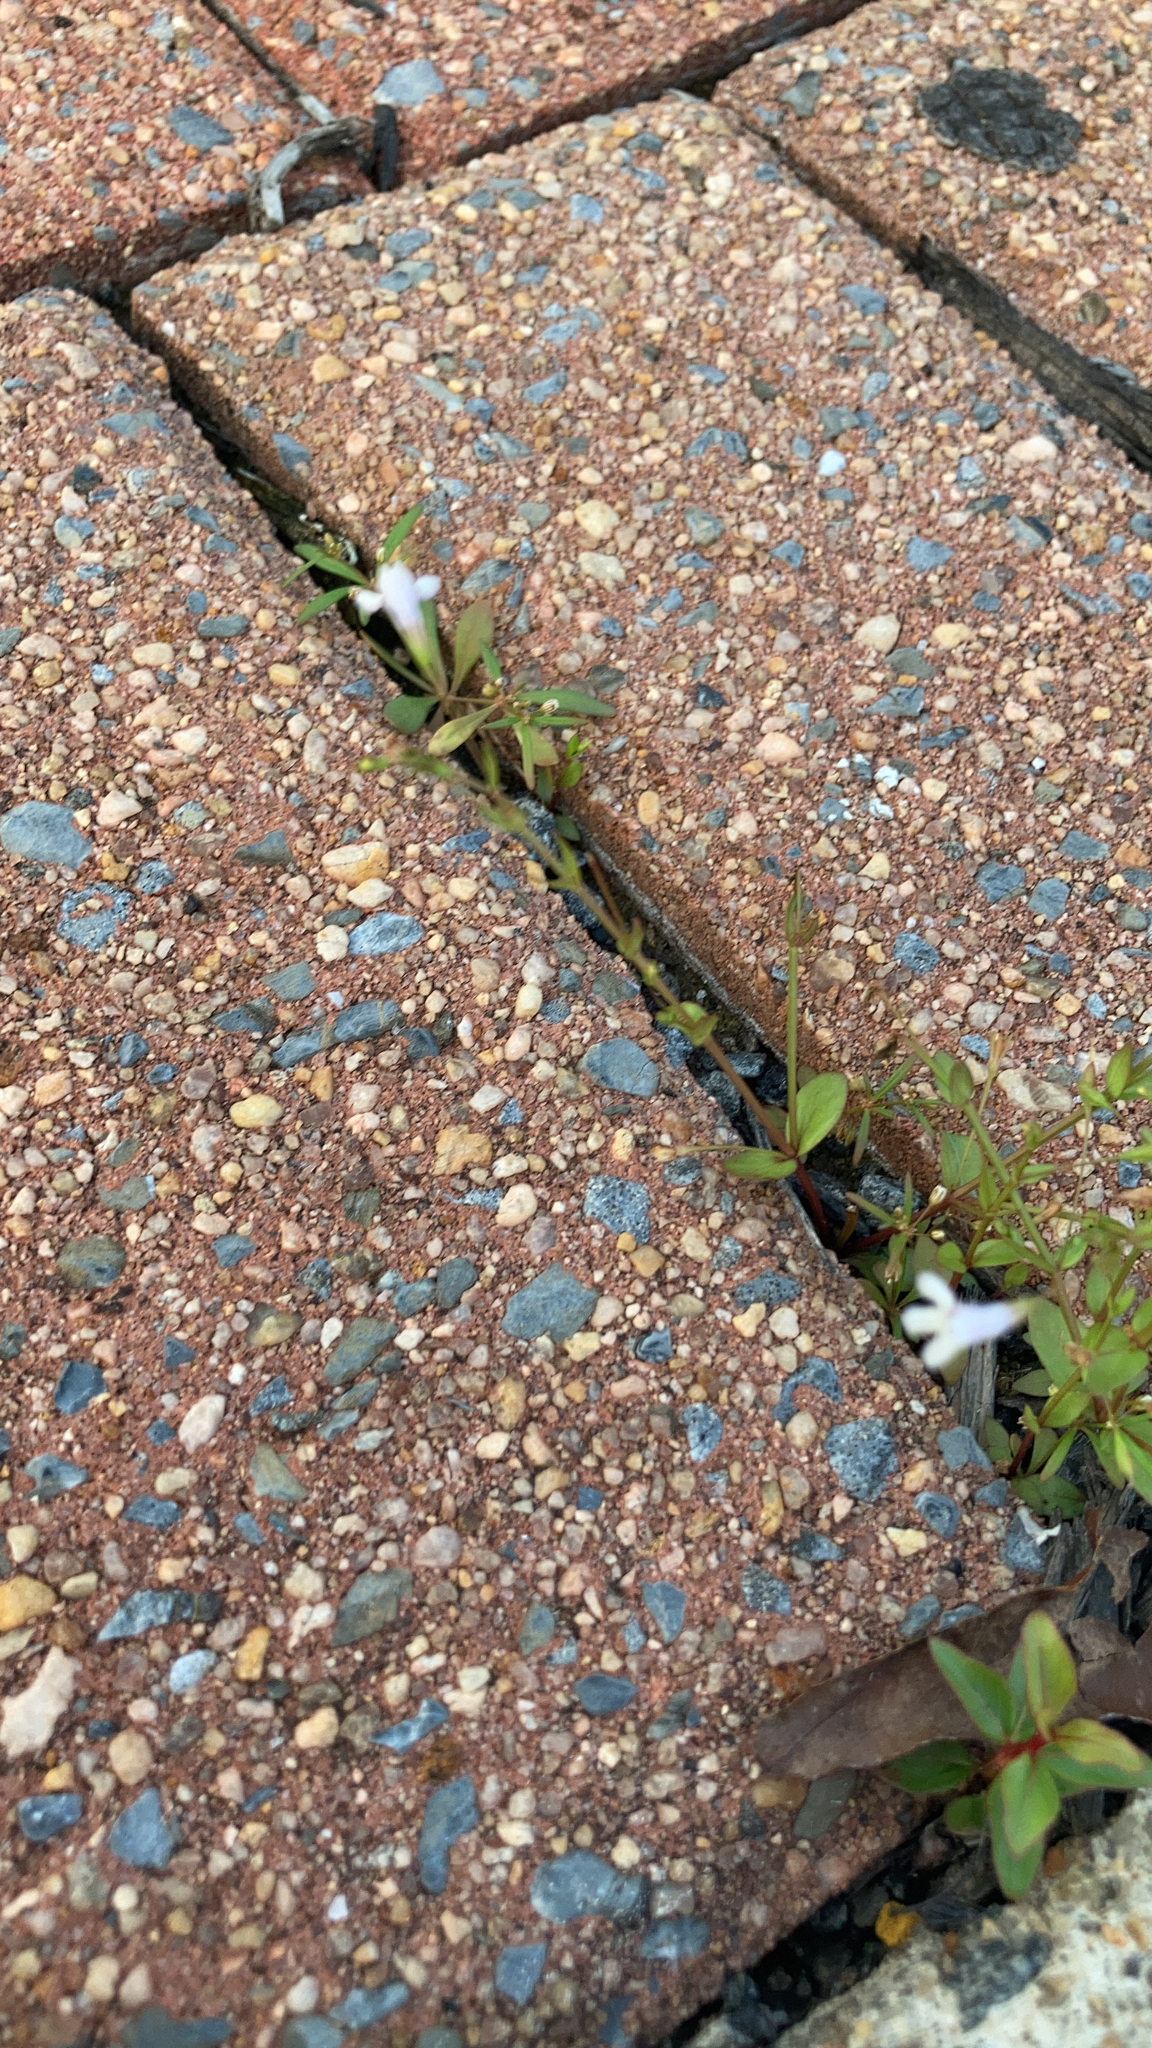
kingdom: Plantae
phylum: Tracheophyta
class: Magnoliopsida
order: Gentianales
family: Rubiaceae
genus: Diodia
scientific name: Diodia virginiana
